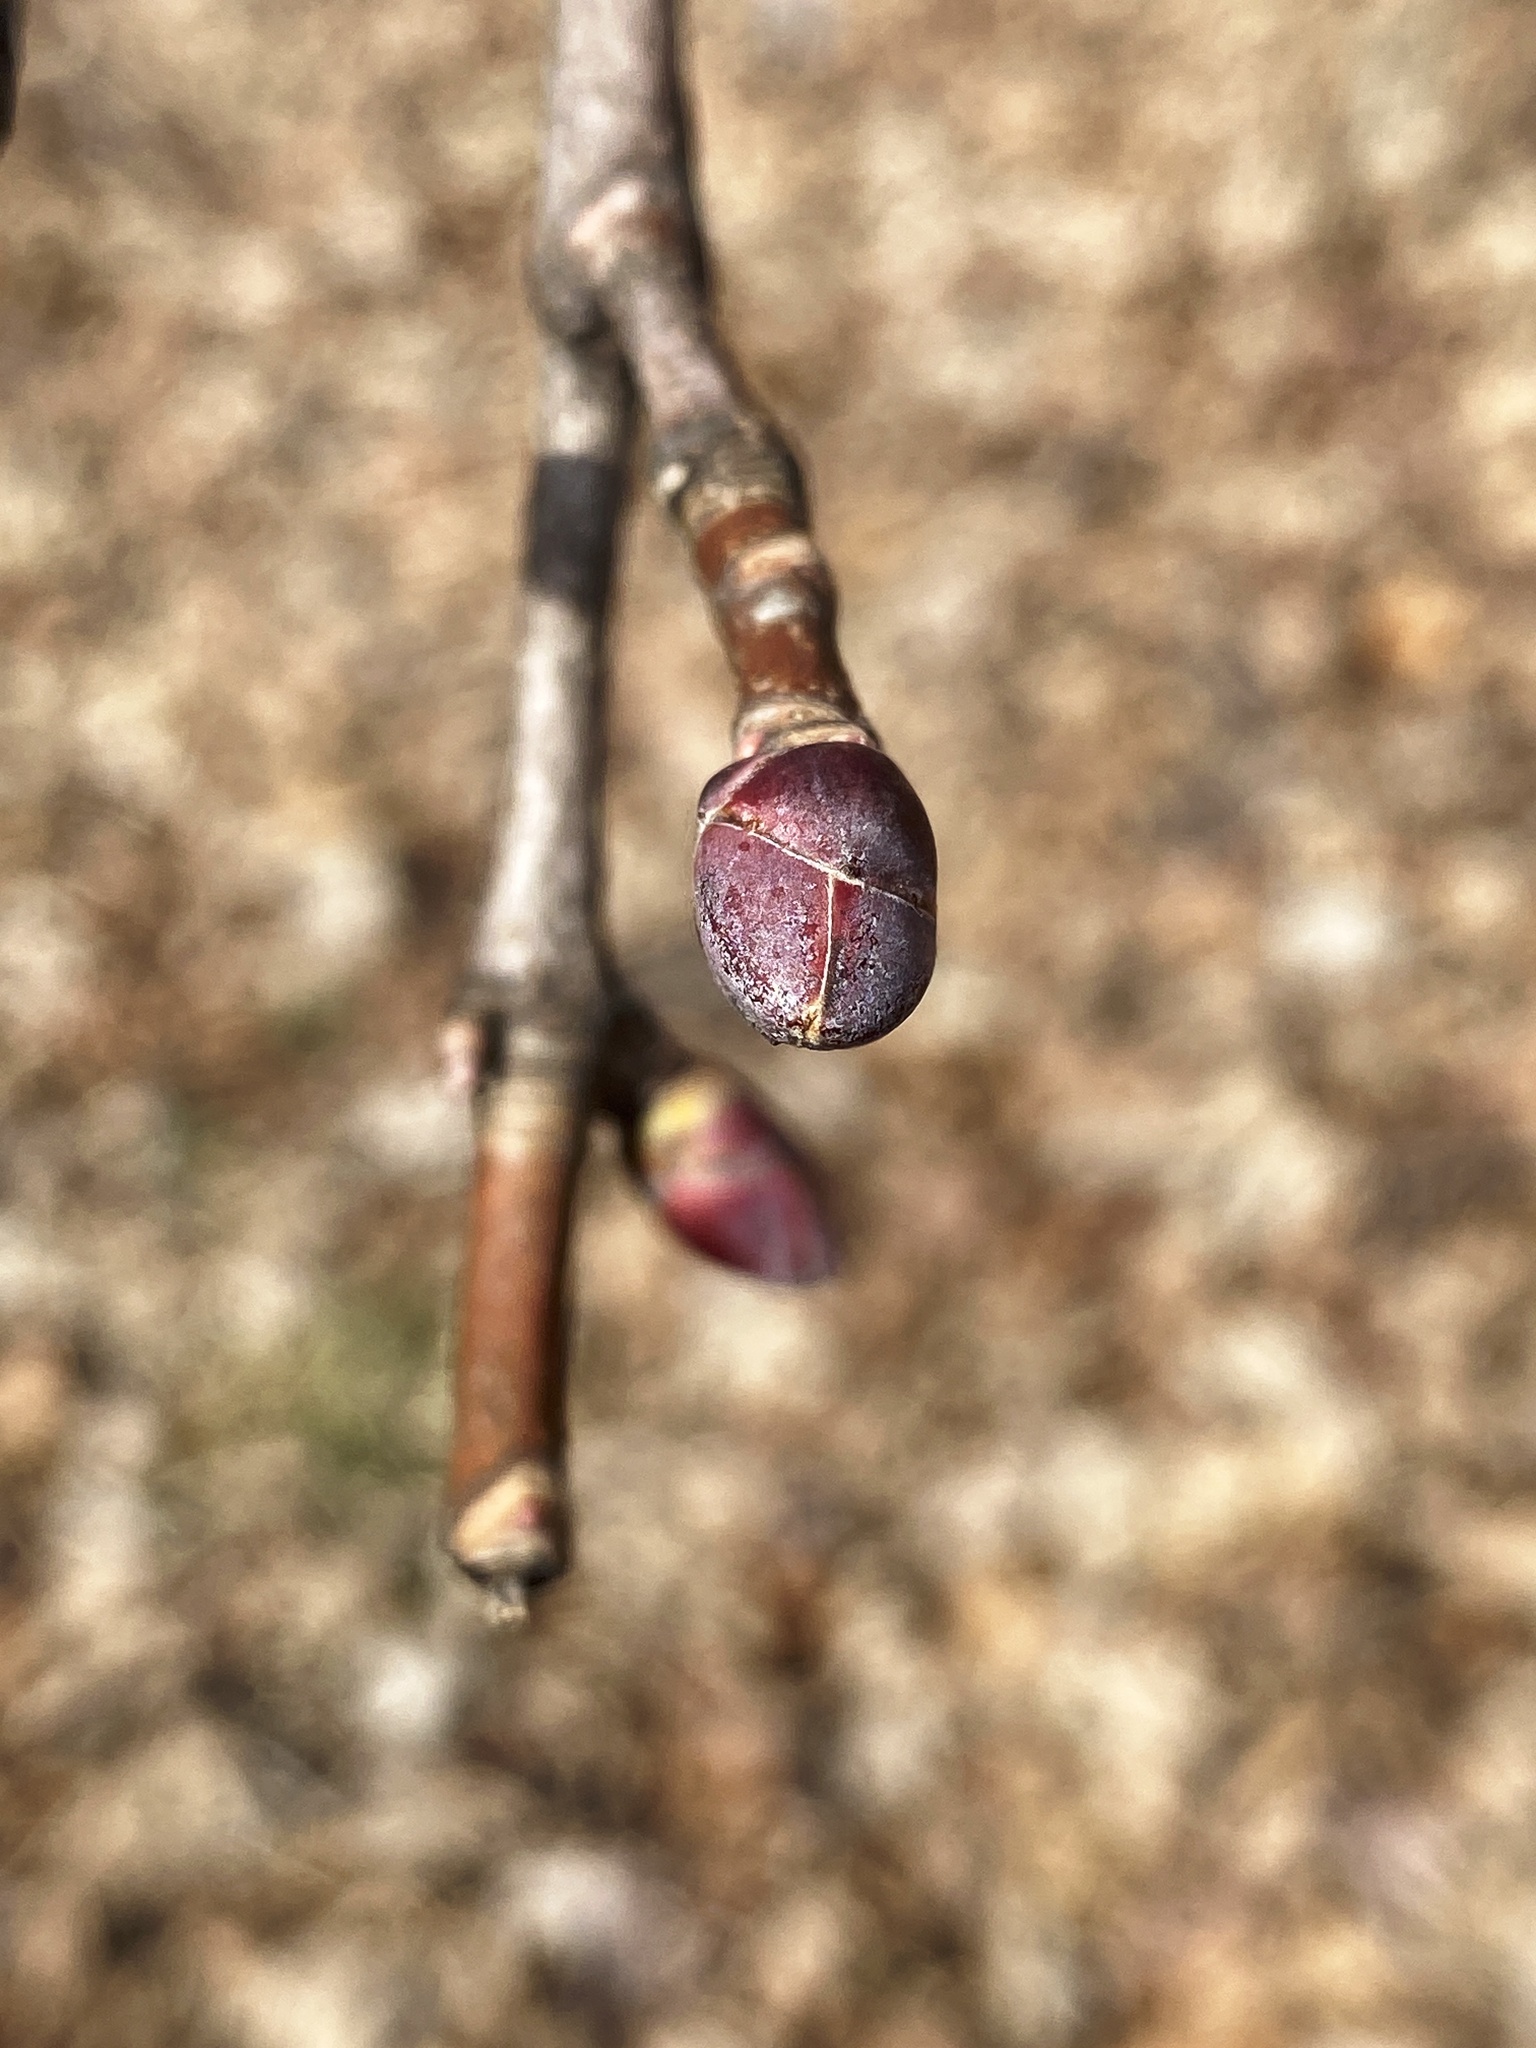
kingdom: Plantae
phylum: Tracheophyta
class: Magnoliopsida
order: Sapindales
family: Sapindaceae
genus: Acer
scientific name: Acer platanoides
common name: Norway maple
